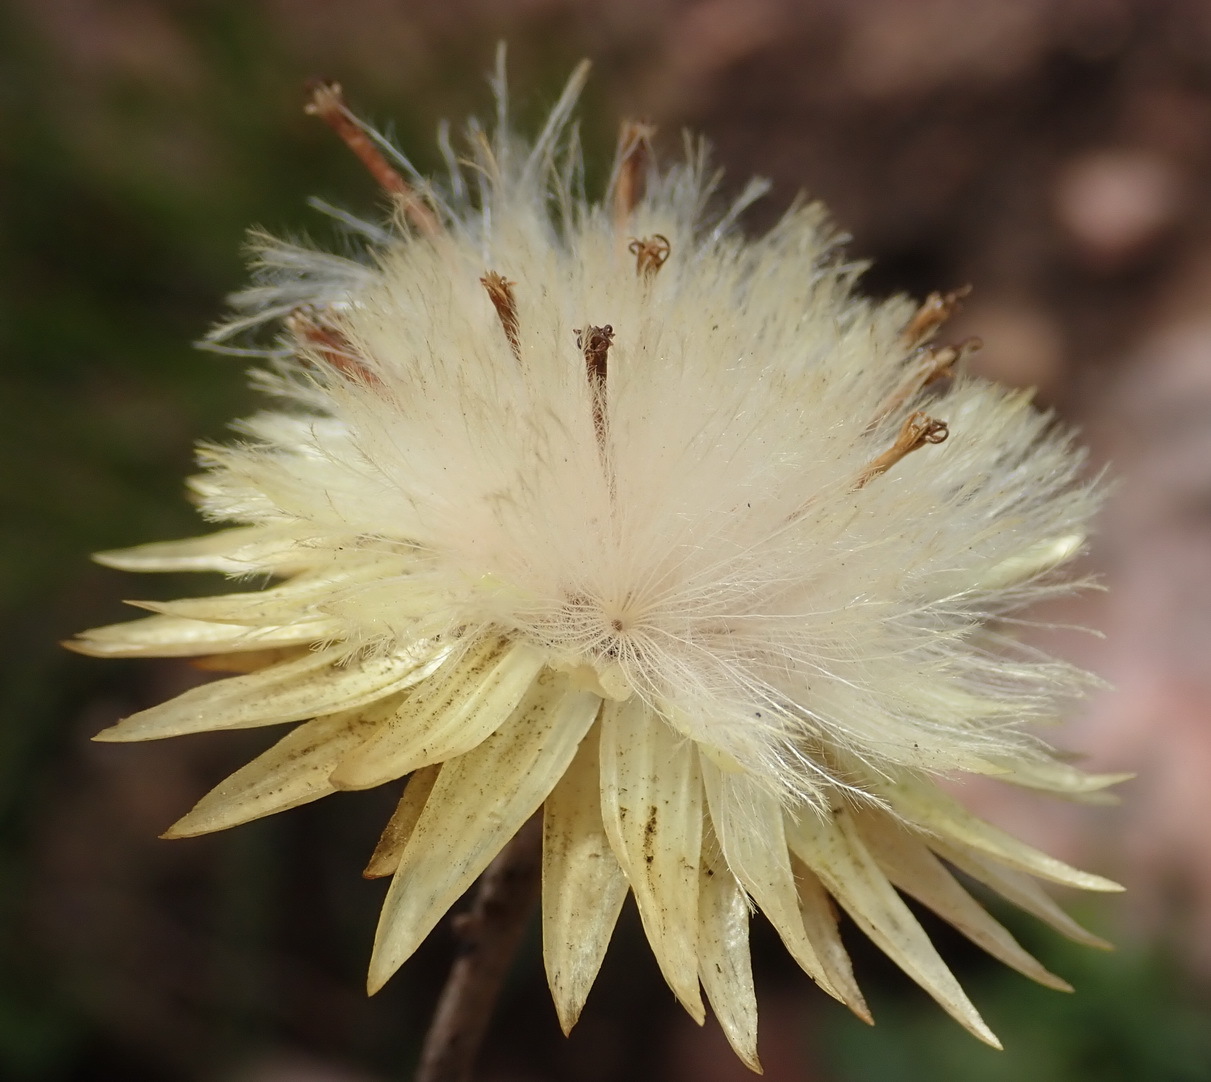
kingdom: Plantae
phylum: Tracheophyta
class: Magnoliopsida
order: Asterales
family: Asteraceae
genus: Syncarpha
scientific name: Syncarpha ferruginea
